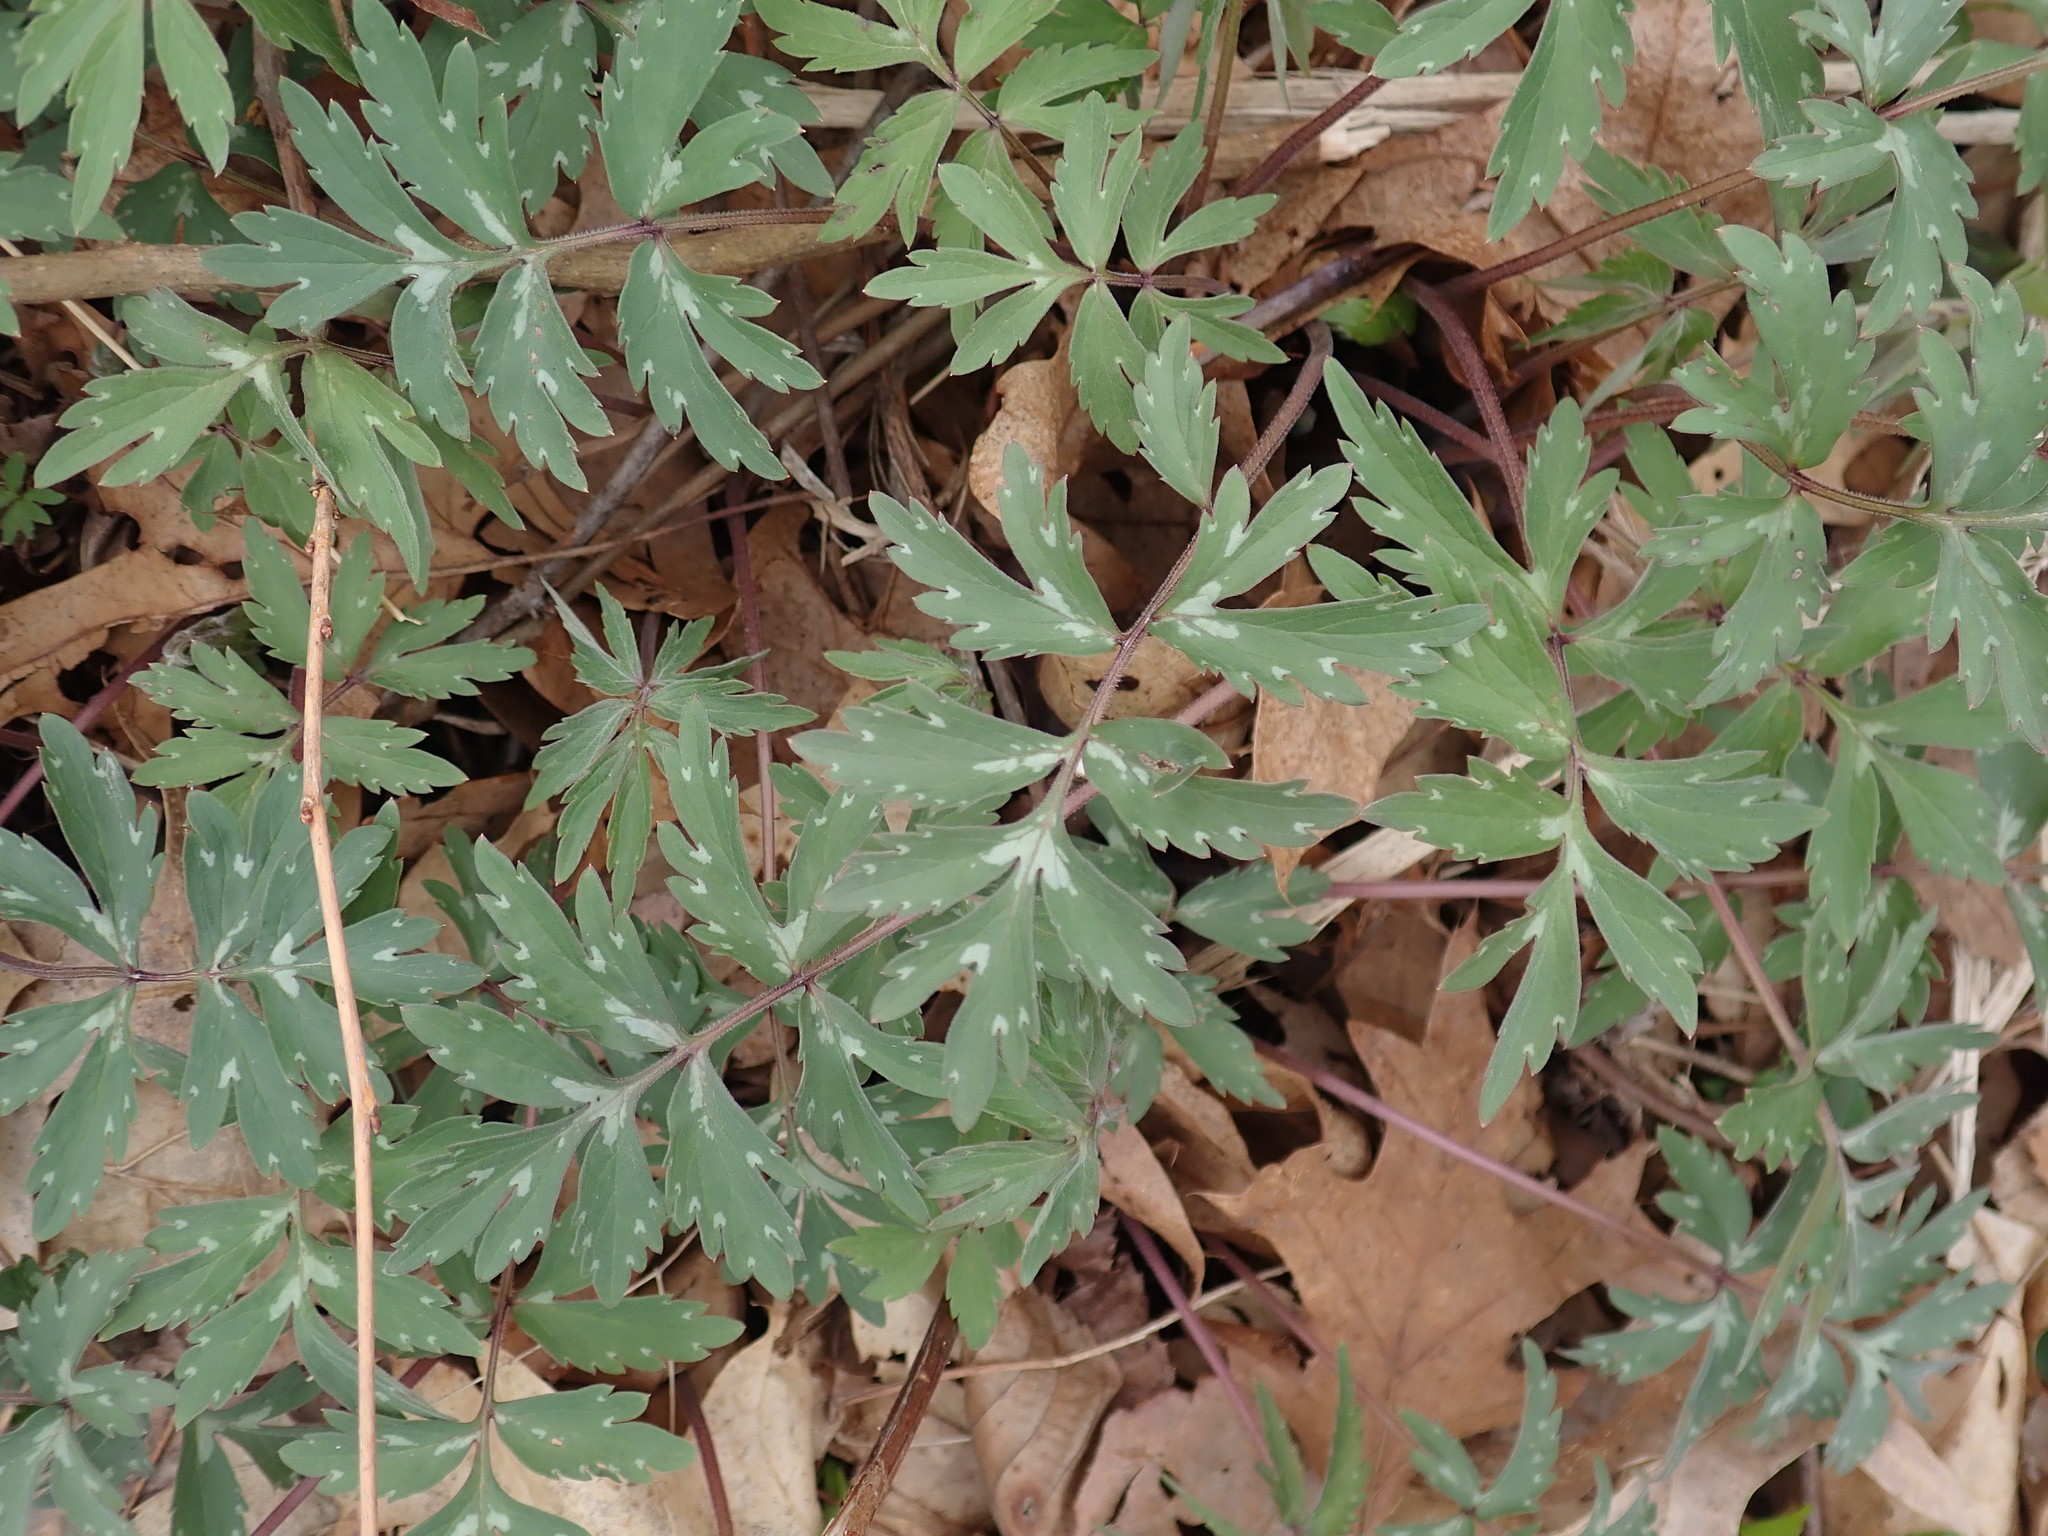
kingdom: Plantae
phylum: Tracheophyta
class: Magnoliopsida
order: Boraginales
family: Hydrophyllaceae
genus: Hydrophyllum
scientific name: Hydrophyllum virginianum
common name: Virginia waterleaf
